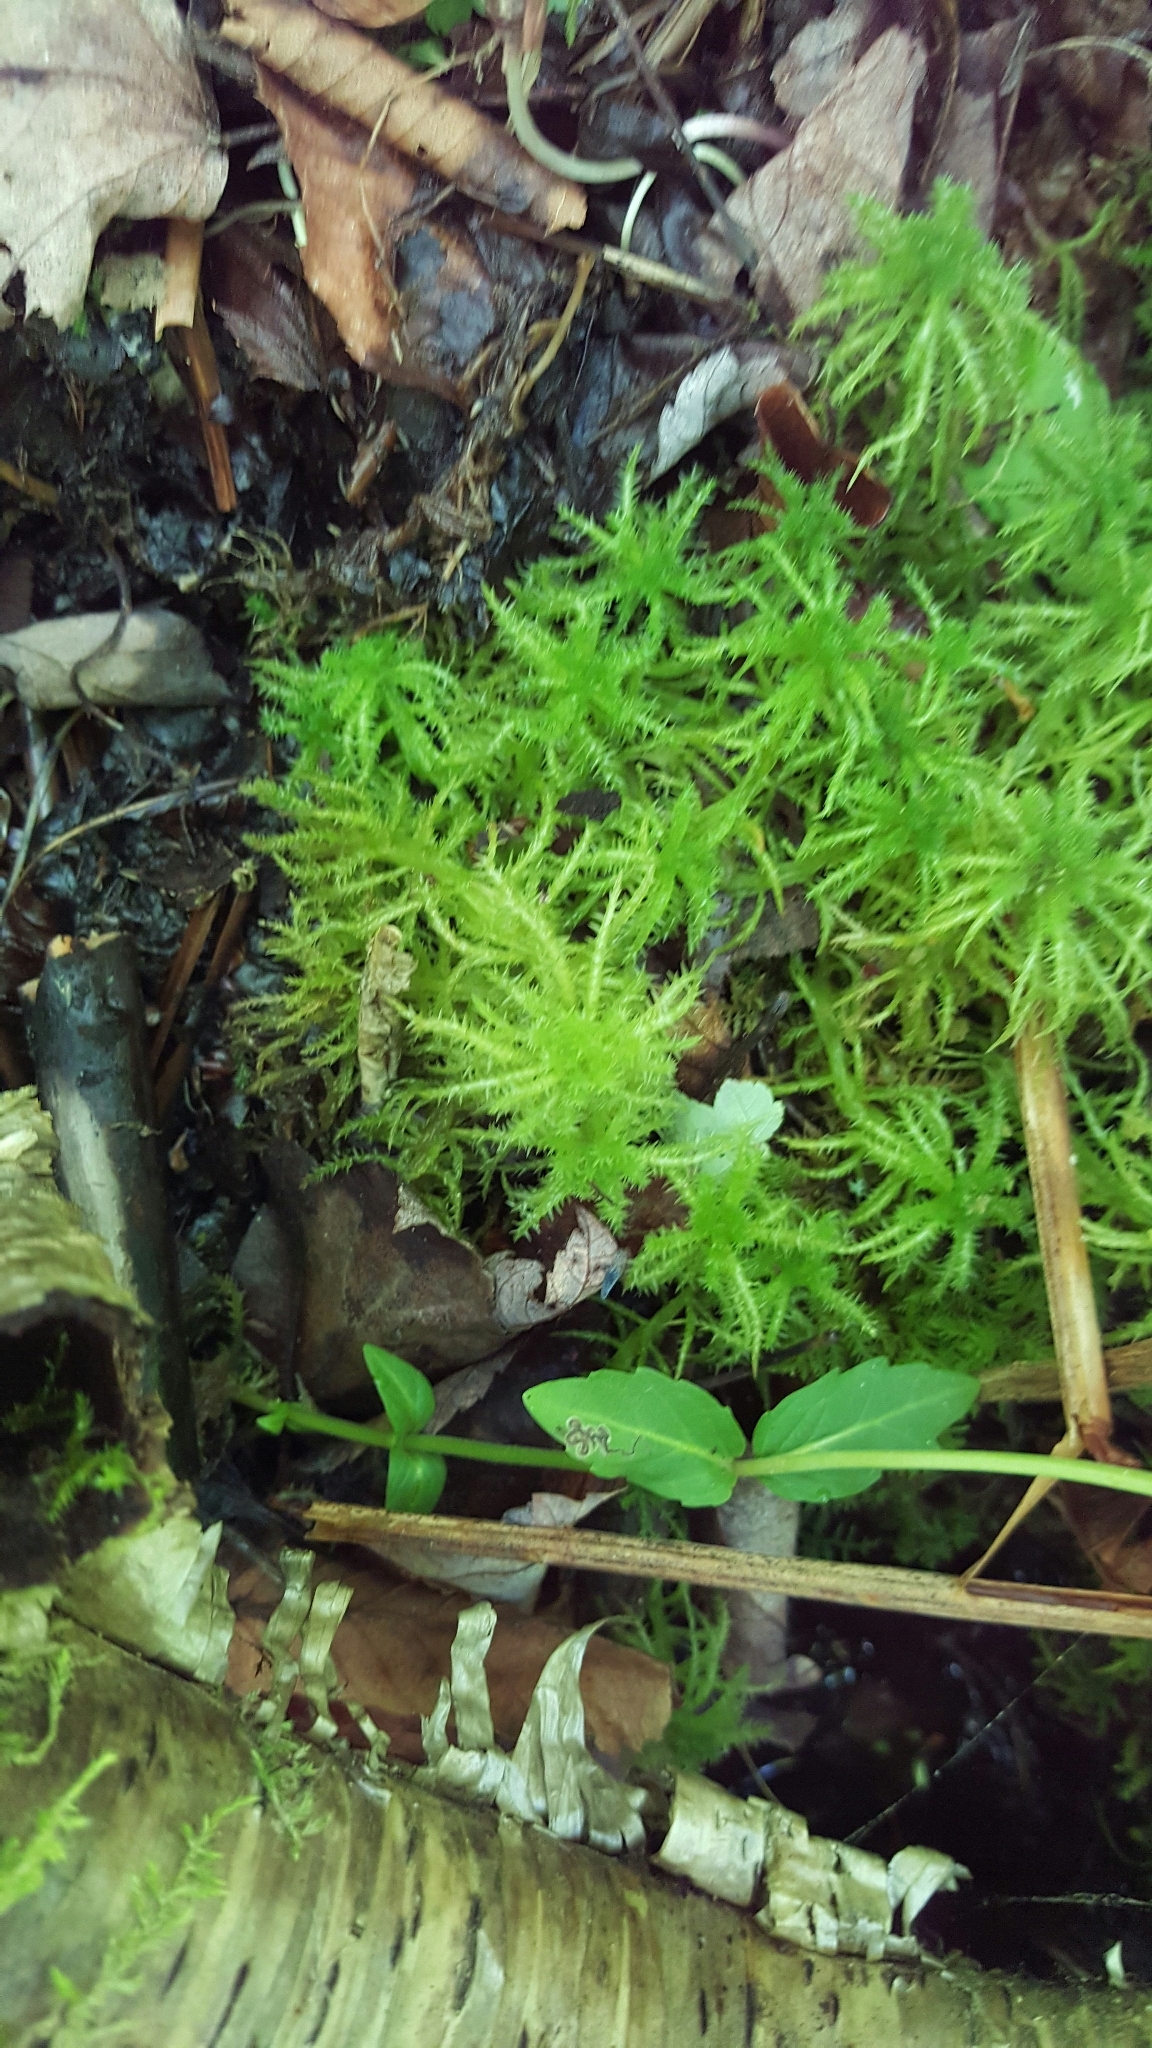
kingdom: Plantae
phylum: Bryophyta
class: Sphagnopsida
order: Sphagnales
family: Sphagnaceae
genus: Sphagnum
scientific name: Sphagnum squarrosum
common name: Shaggy peat moss
